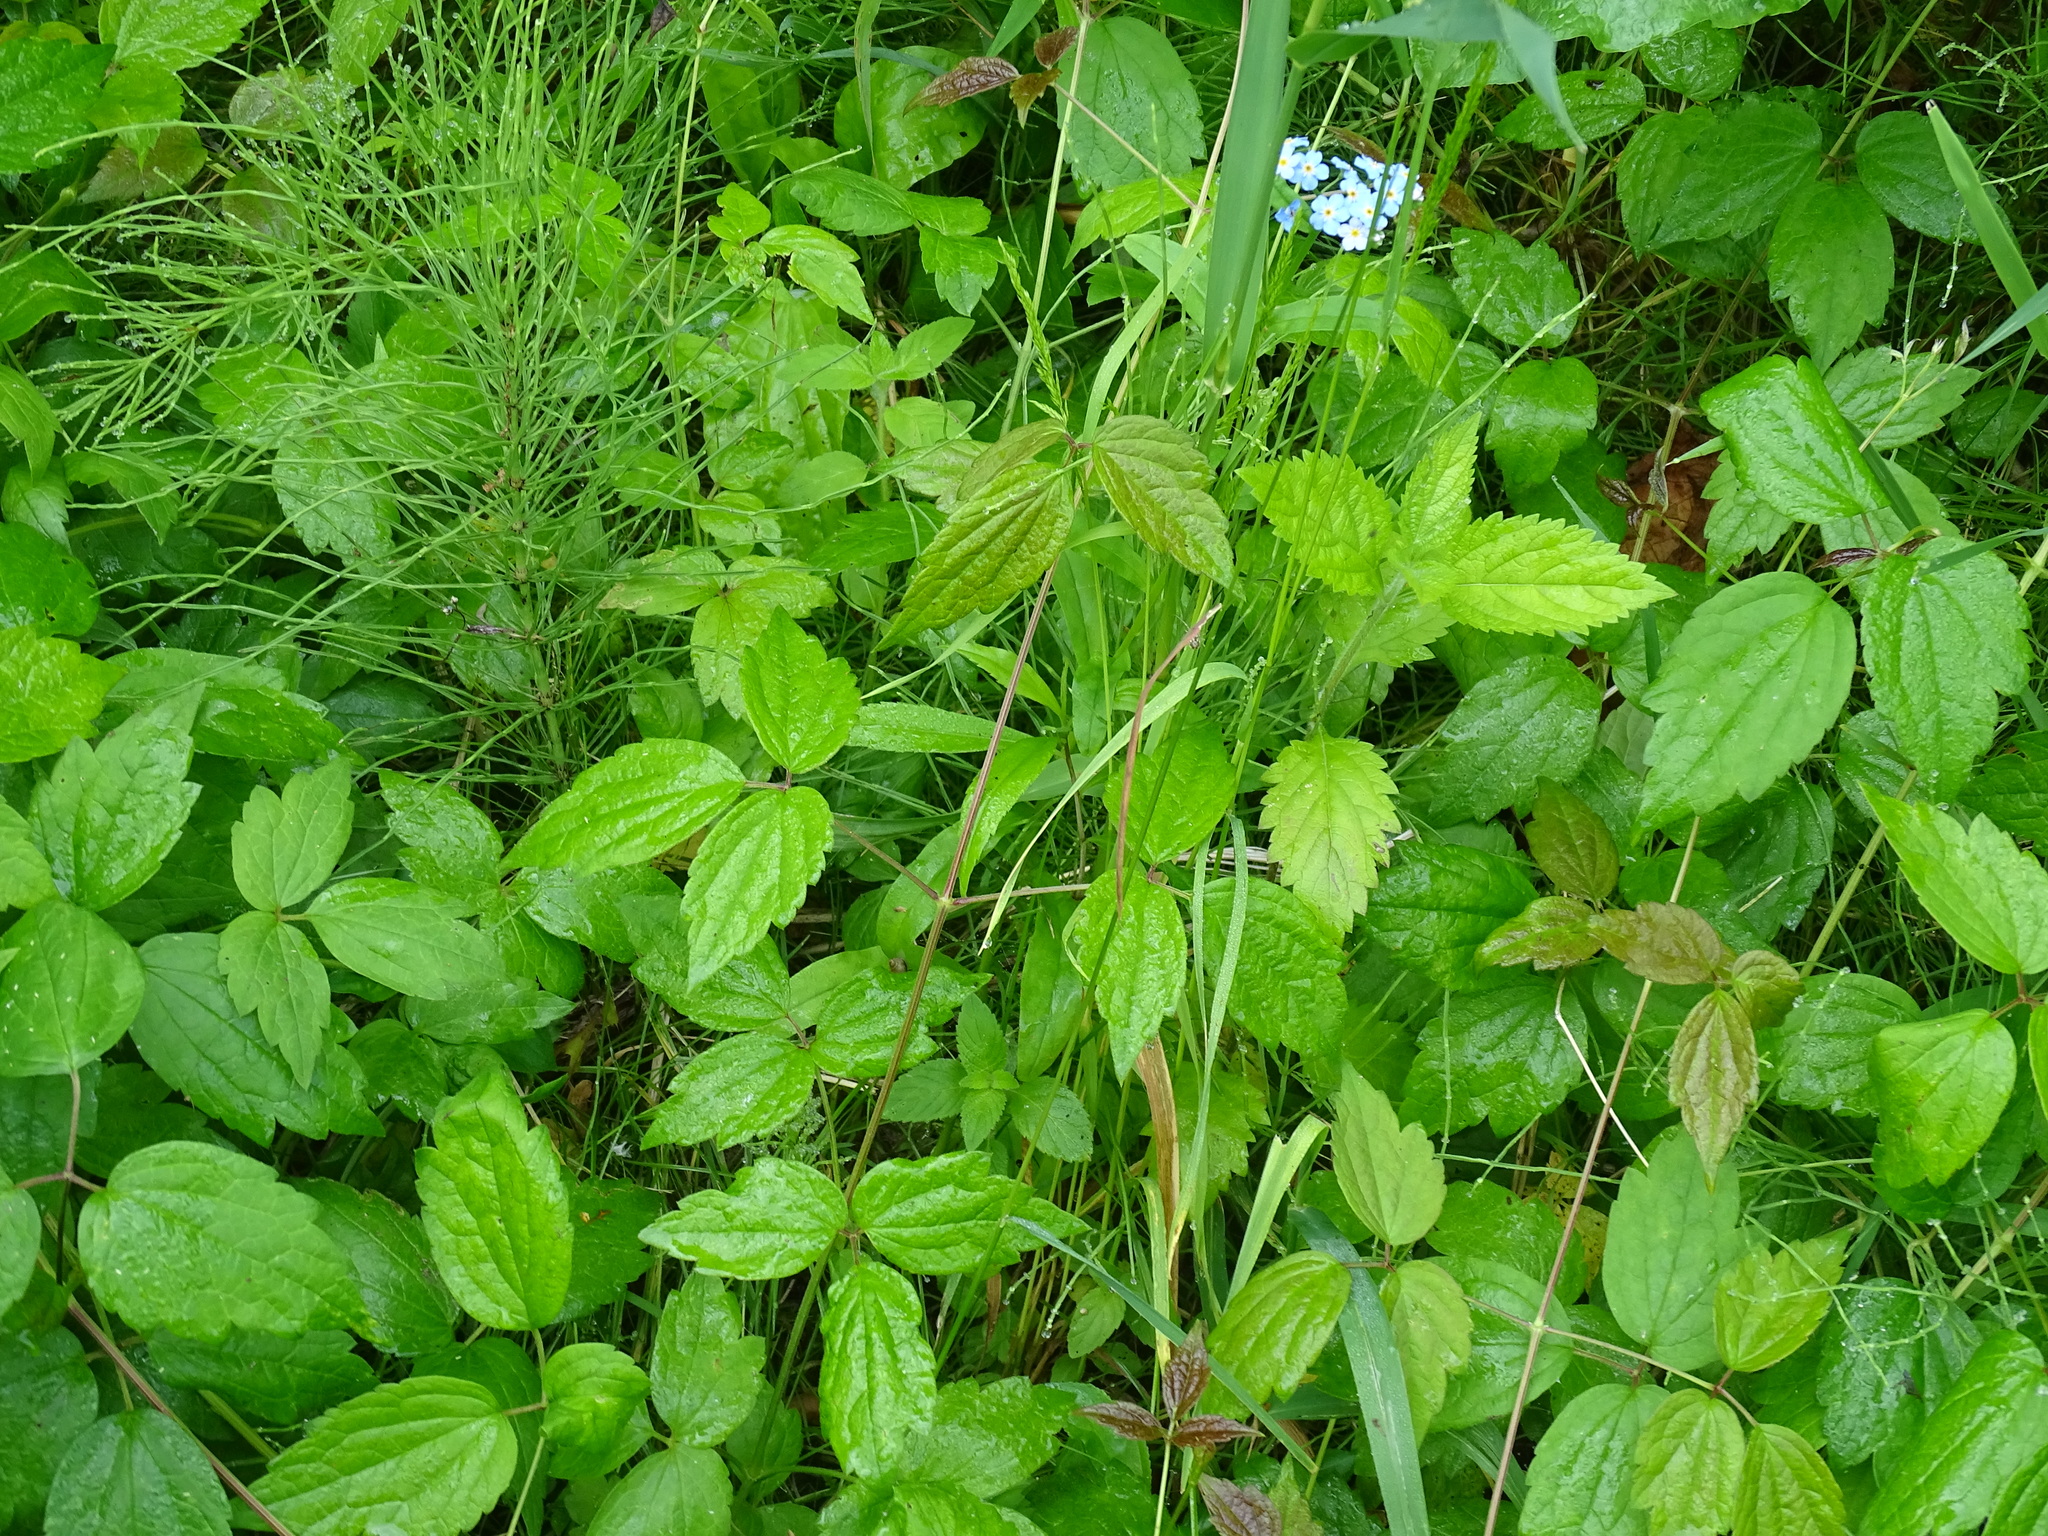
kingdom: Plantae
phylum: Tracheophyta
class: Magnoliopsida
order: Ranunculales
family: Ranunculaceae
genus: Clematis
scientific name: Clematis virginiana
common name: Virgin's-bower
